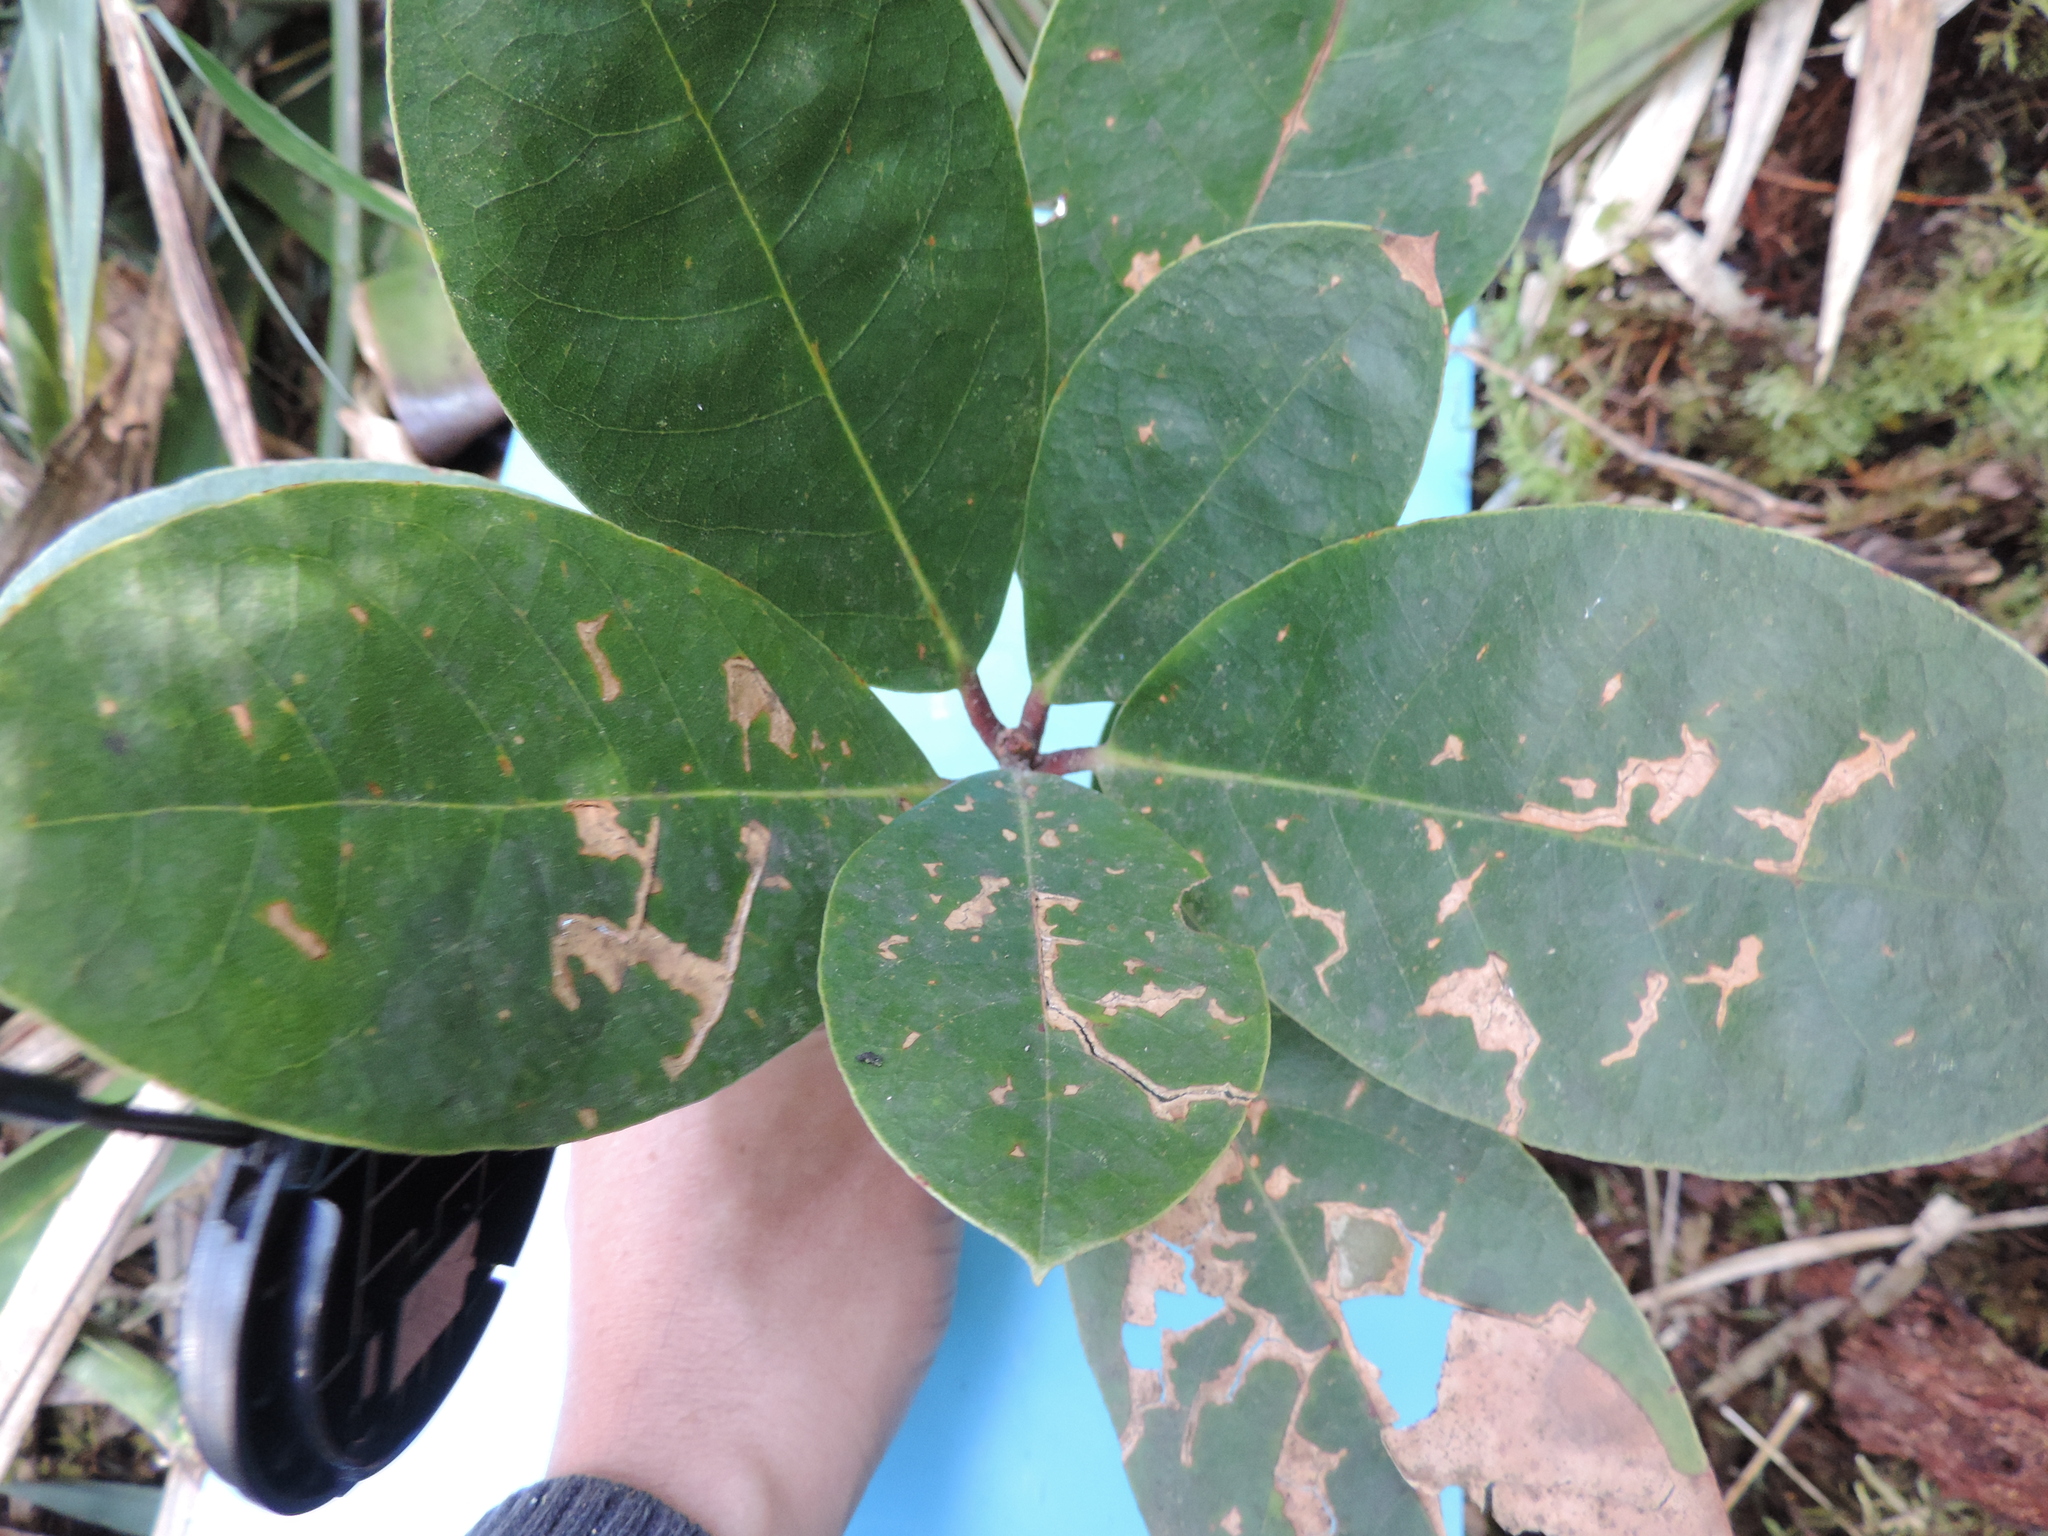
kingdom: Plantae
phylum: Tracheophyta
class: Magnoliopsida
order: Laurales
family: Lauraceae
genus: Persea
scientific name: Persea mutisii
